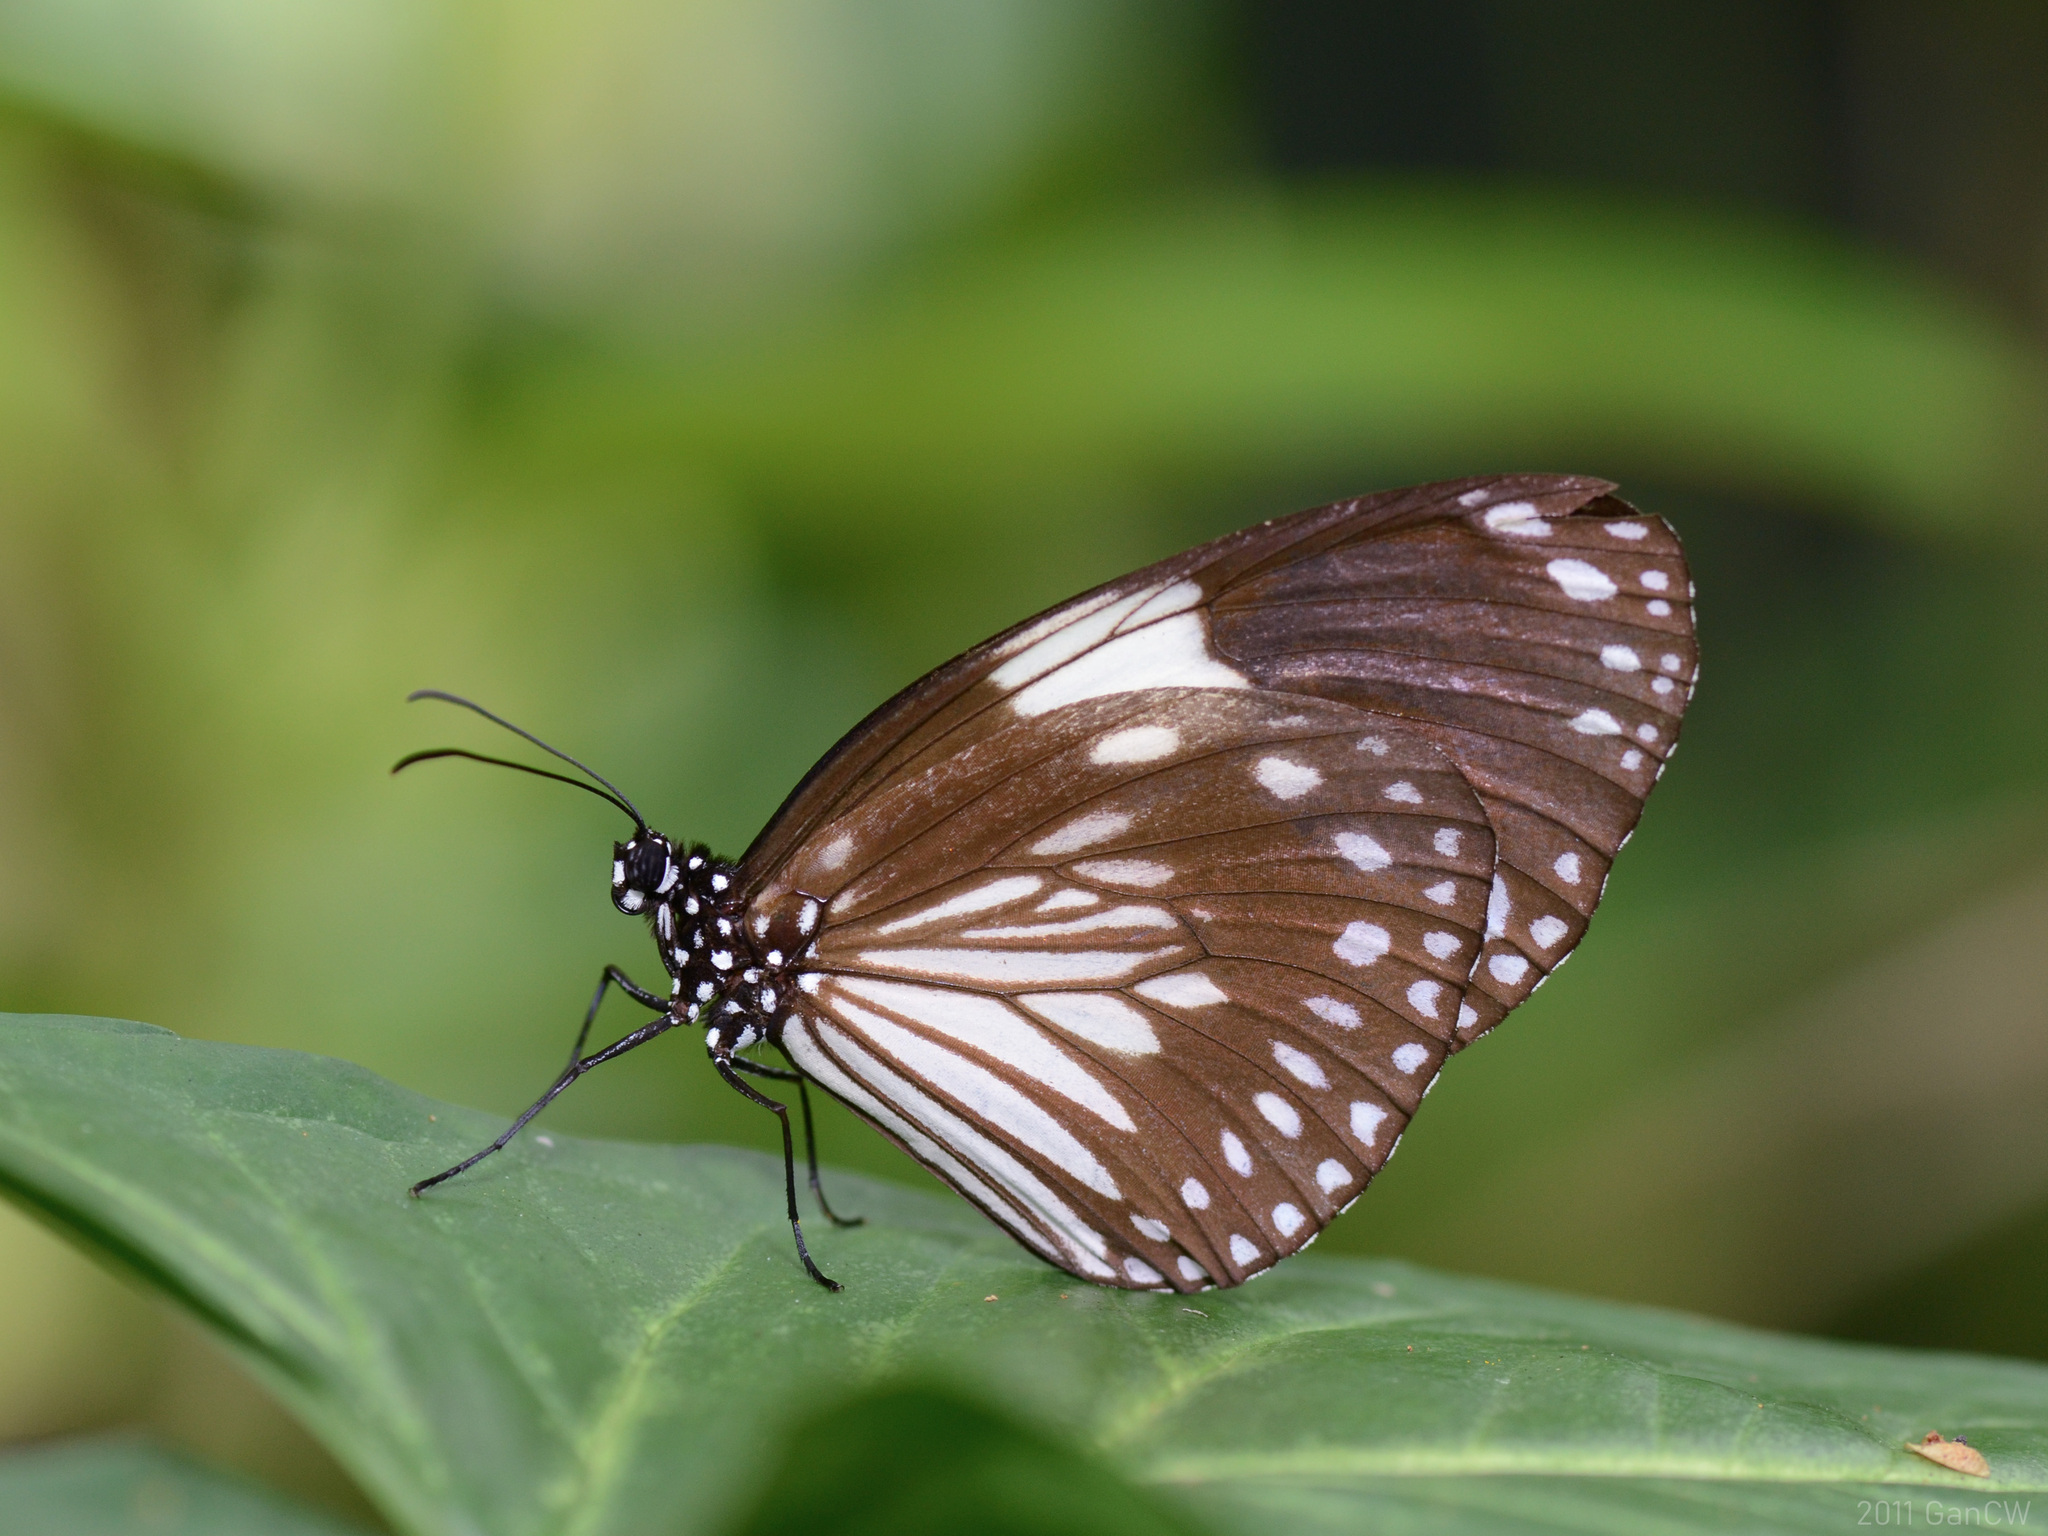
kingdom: Animalia
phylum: Arthropoda
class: Insecta
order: Lepidoptera
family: Nymphalidae
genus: Euploea
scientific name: Euploea radamanthus
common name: Magpie crow butterfly
